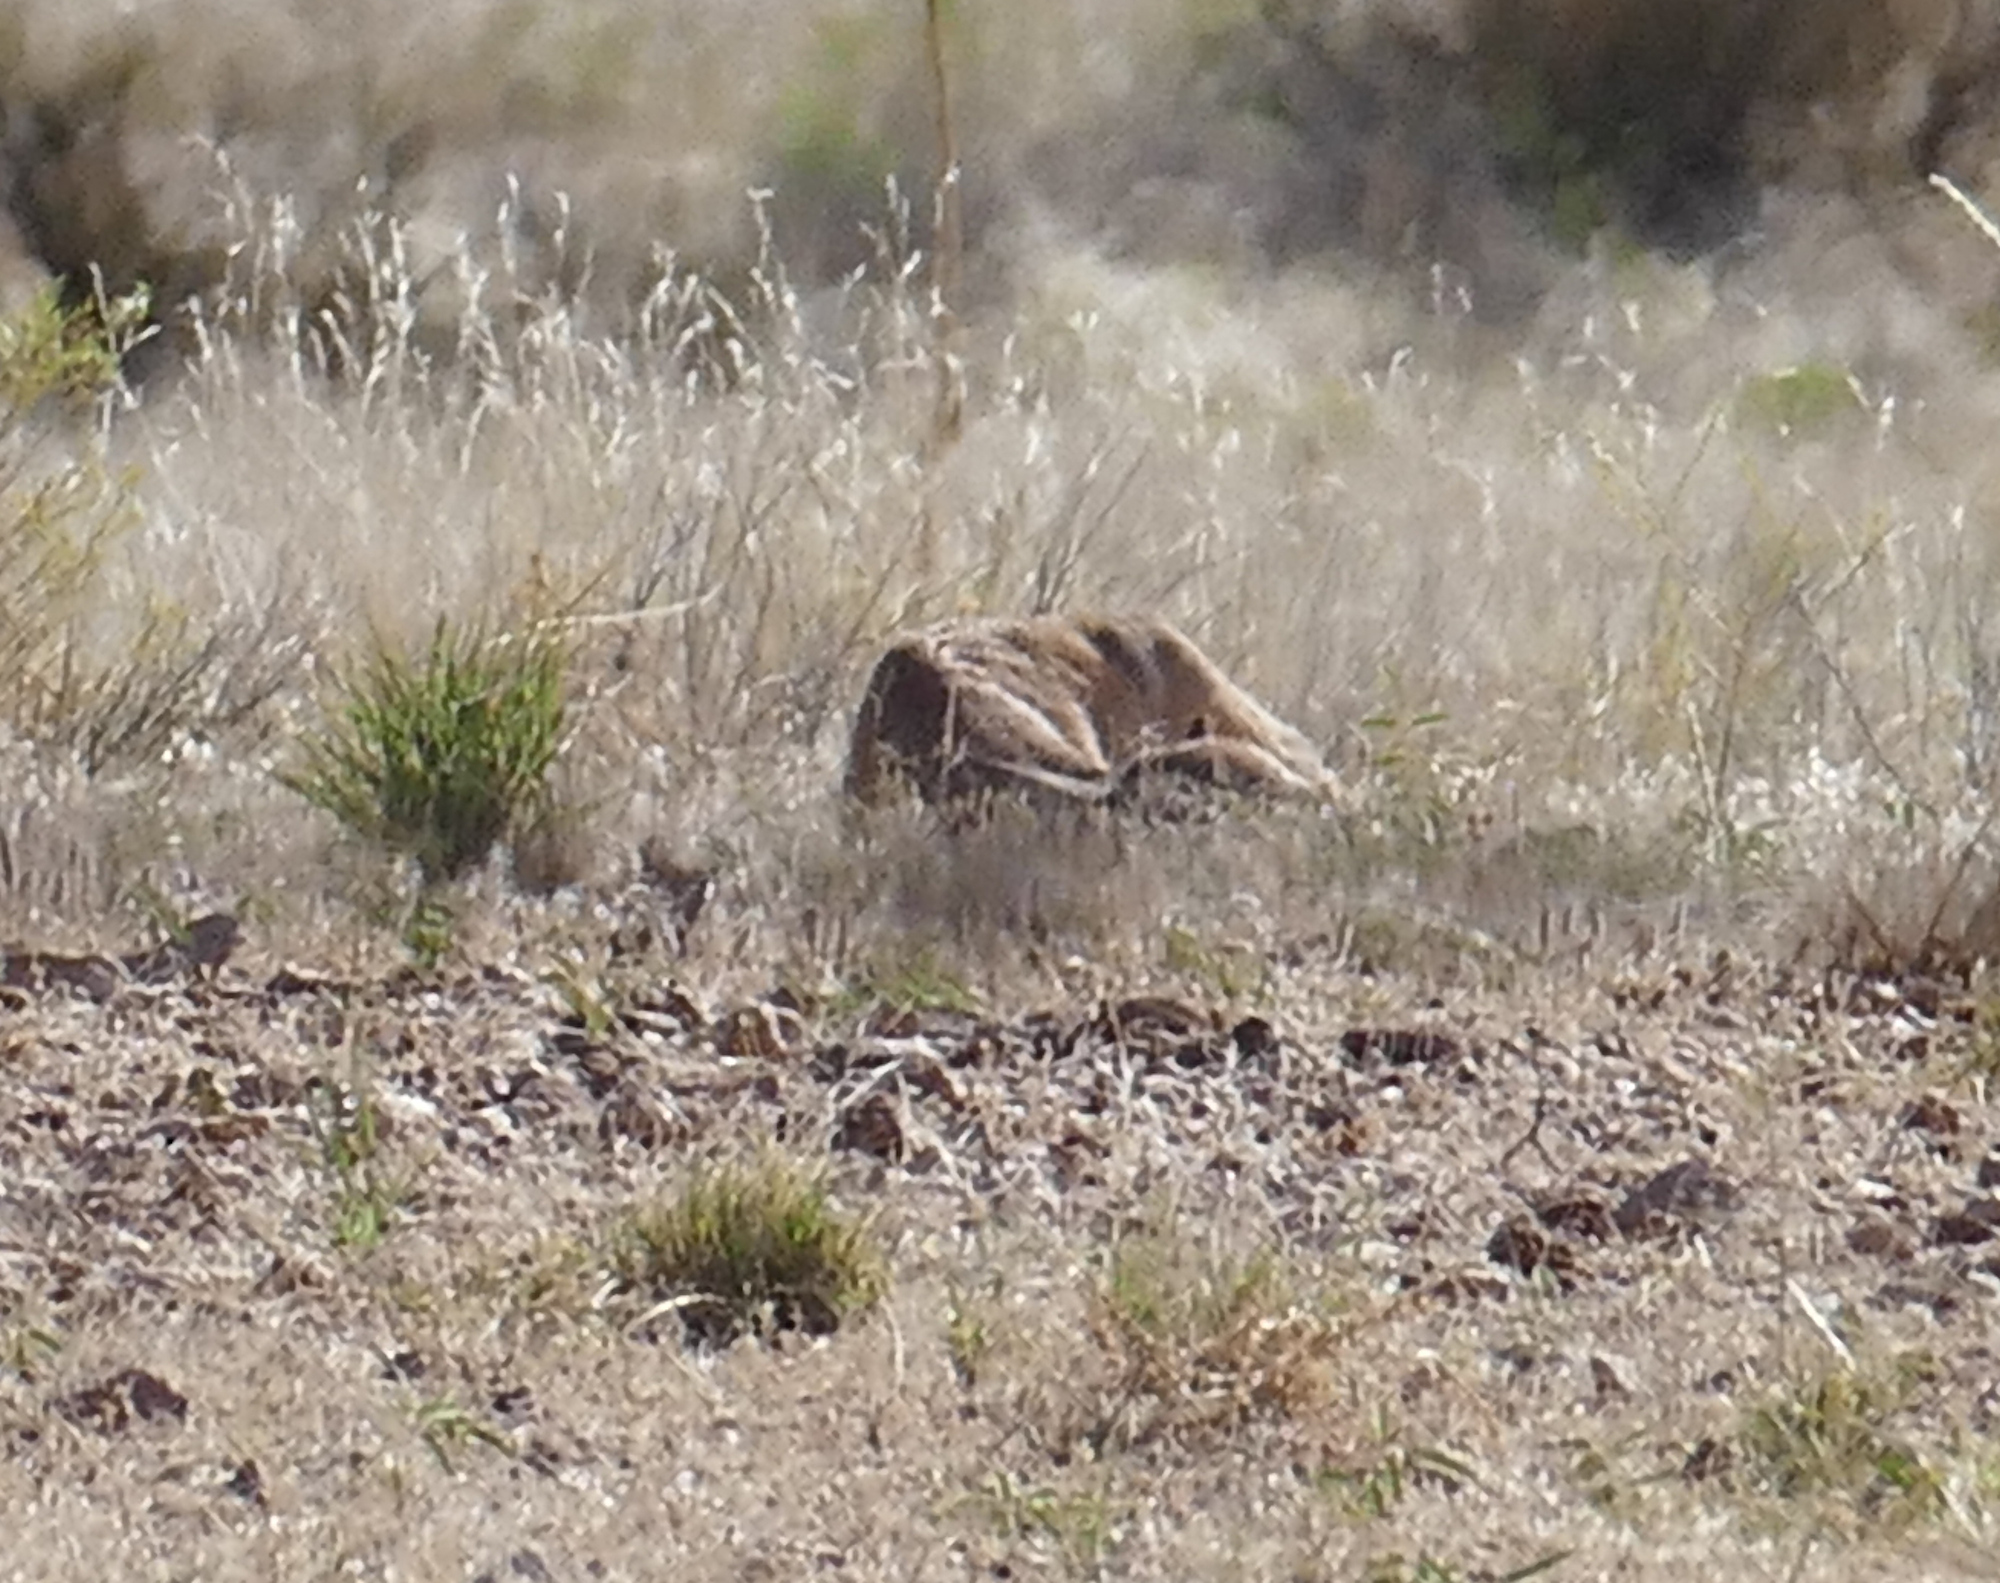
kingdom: Animalia
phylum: Chordata
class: Mammalia
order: Artiodactyla
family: Antilocapridae
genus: Antilocapra
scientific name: Antilocapra americana
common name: Pronghorn
